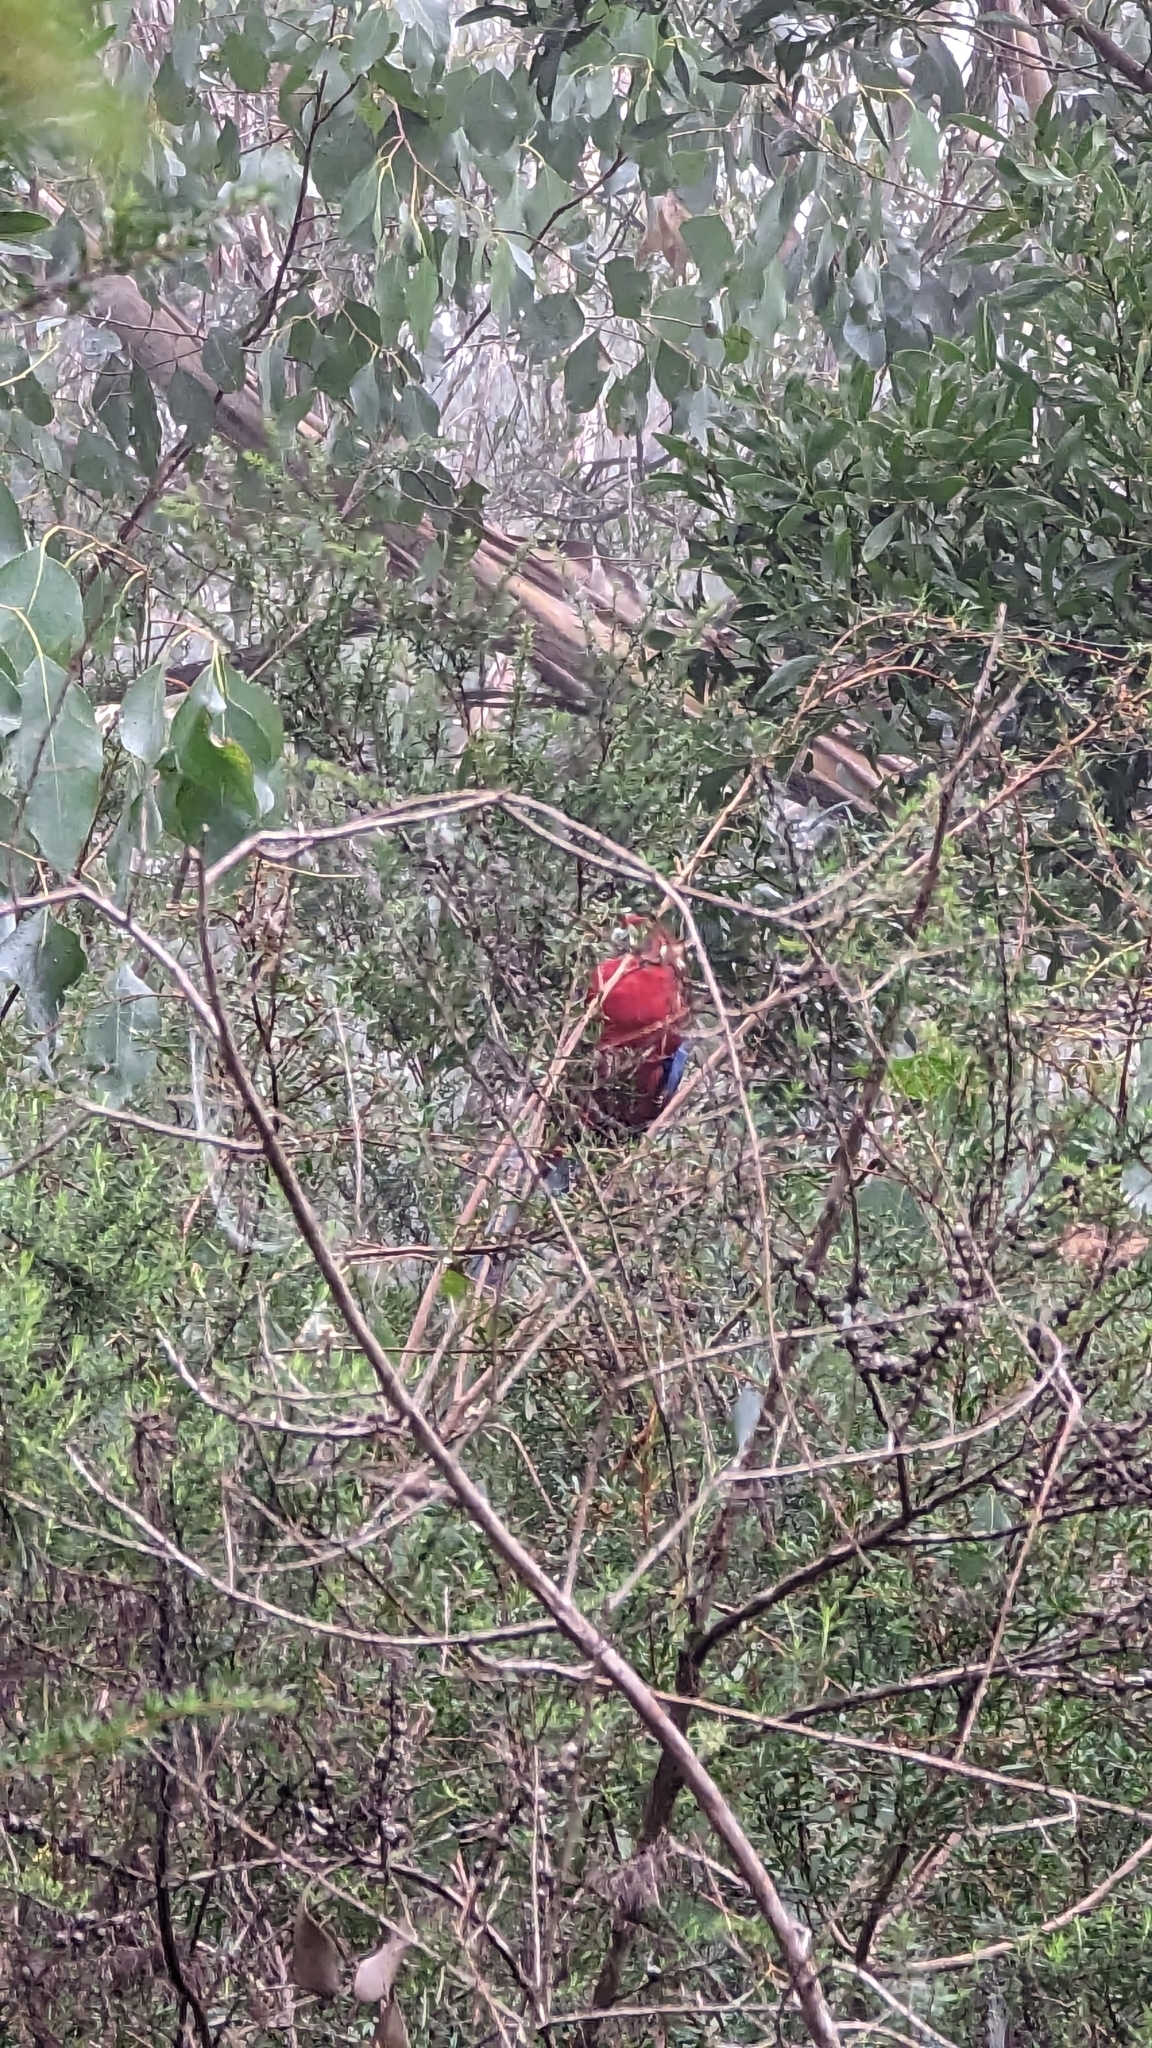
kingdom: Animalia
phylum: Chordata
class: Aves
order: Psittaciformes
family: Psittacidae
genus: Platycercus
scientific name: Platycercus elegans
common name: Crimson rosella
